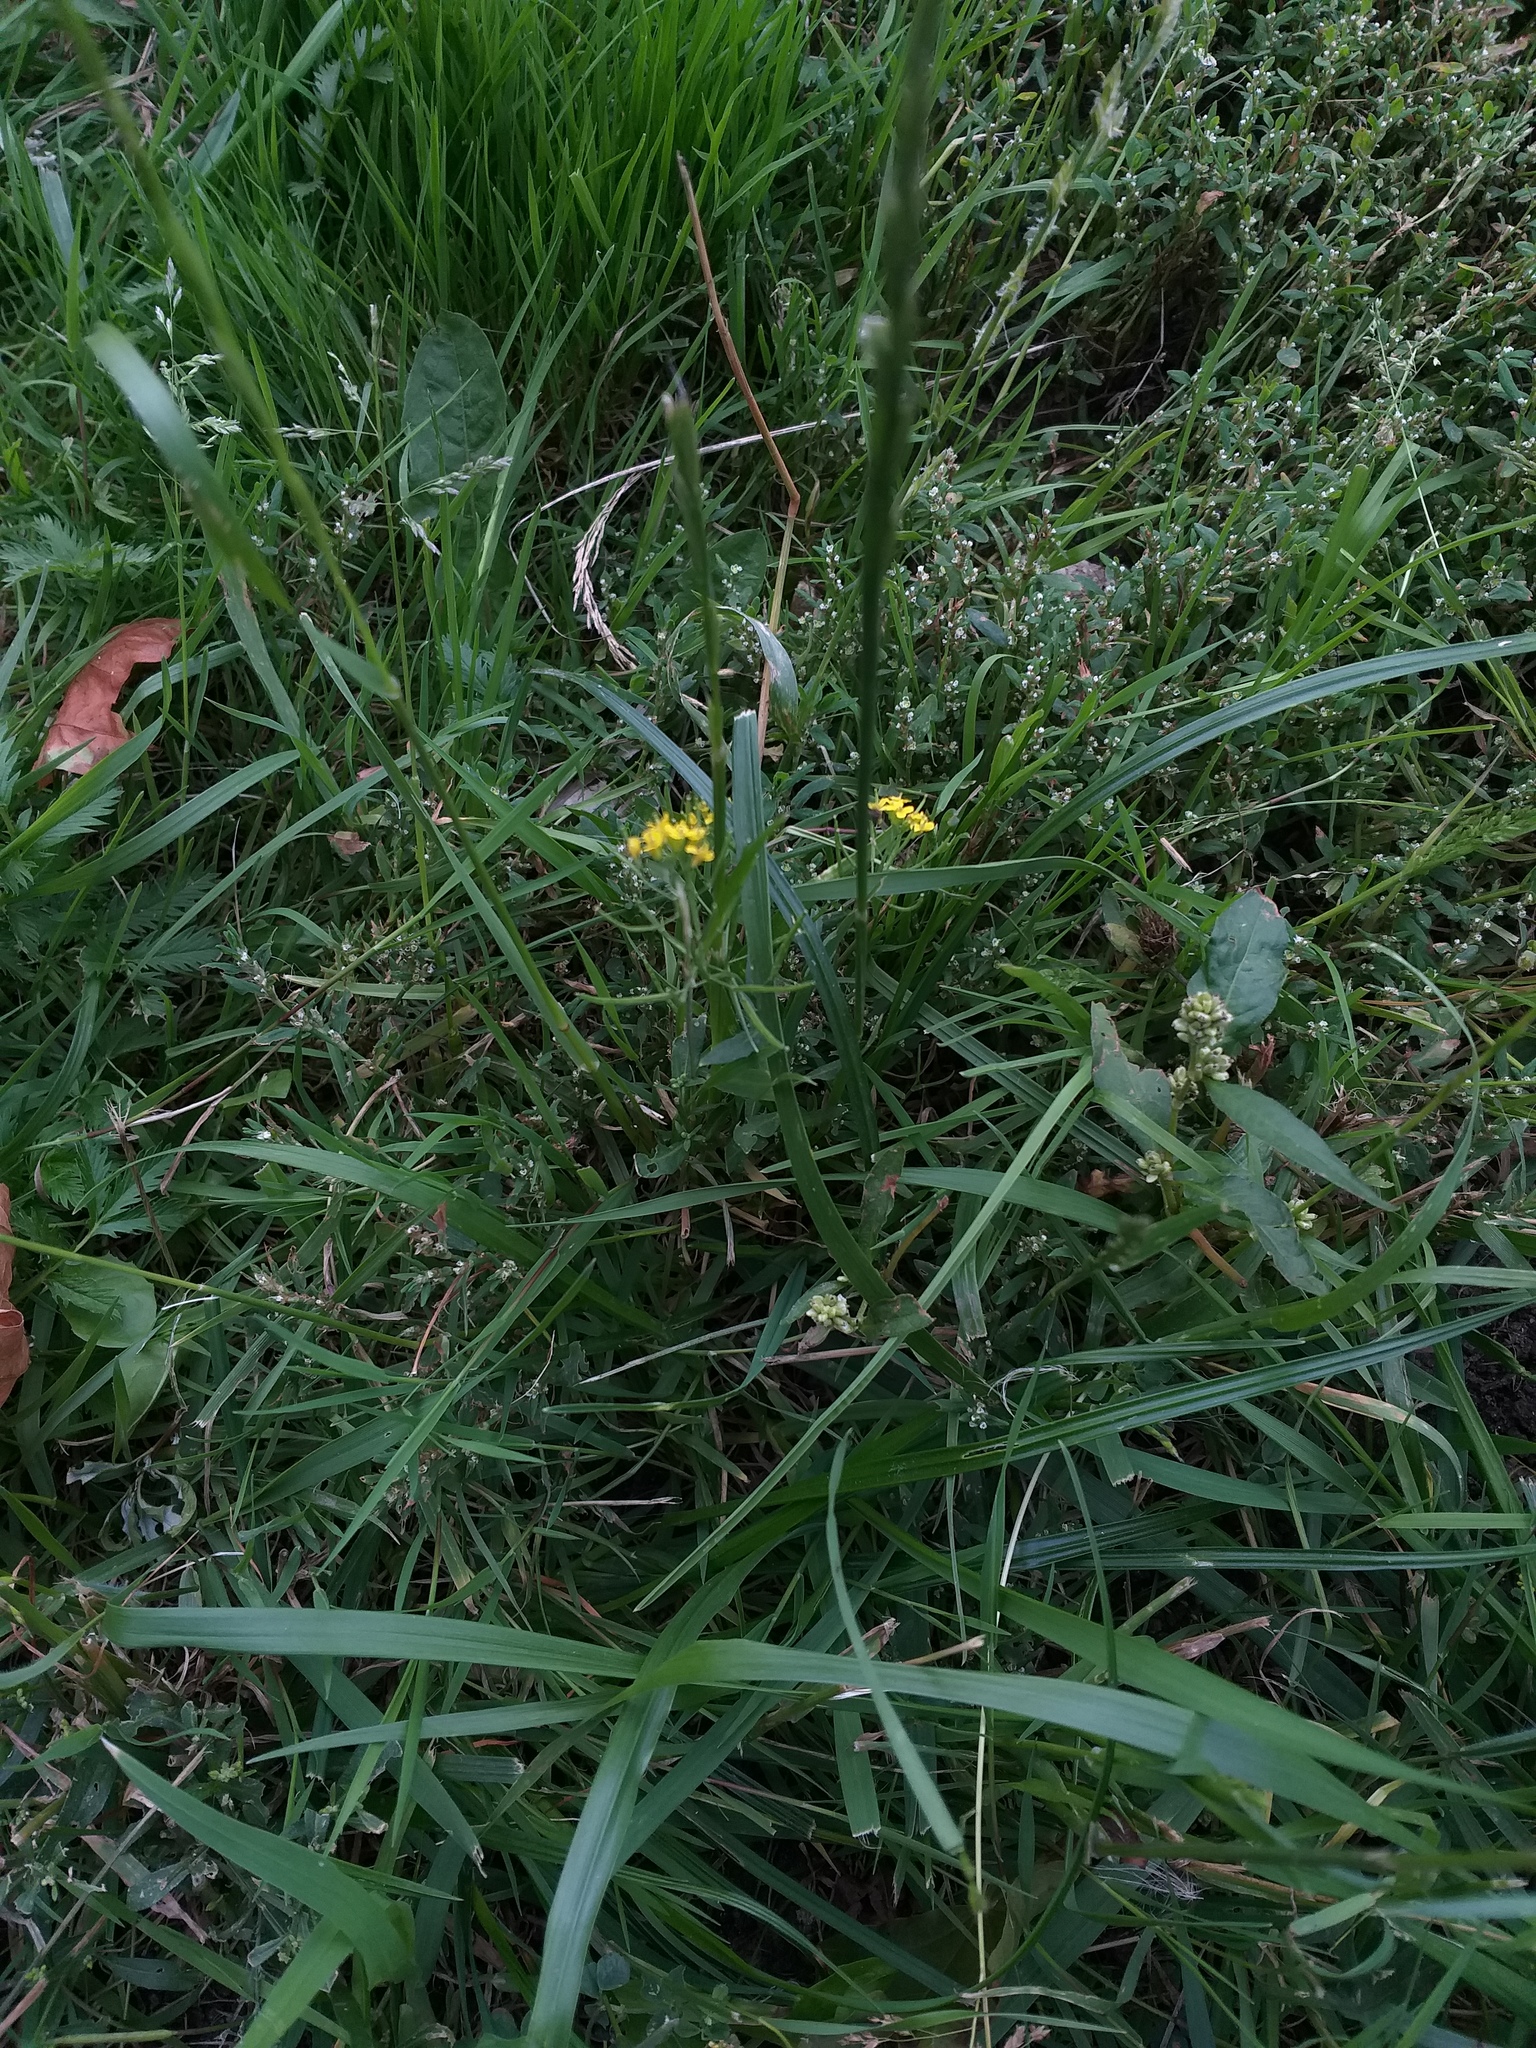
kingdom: Plantae
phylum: Tracheophyta
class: Magnoliopsida
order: Brassicales
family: Brassicaceae
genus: Erysimum
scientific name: Erysimum cheiranthoides
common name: Treacle mustard
